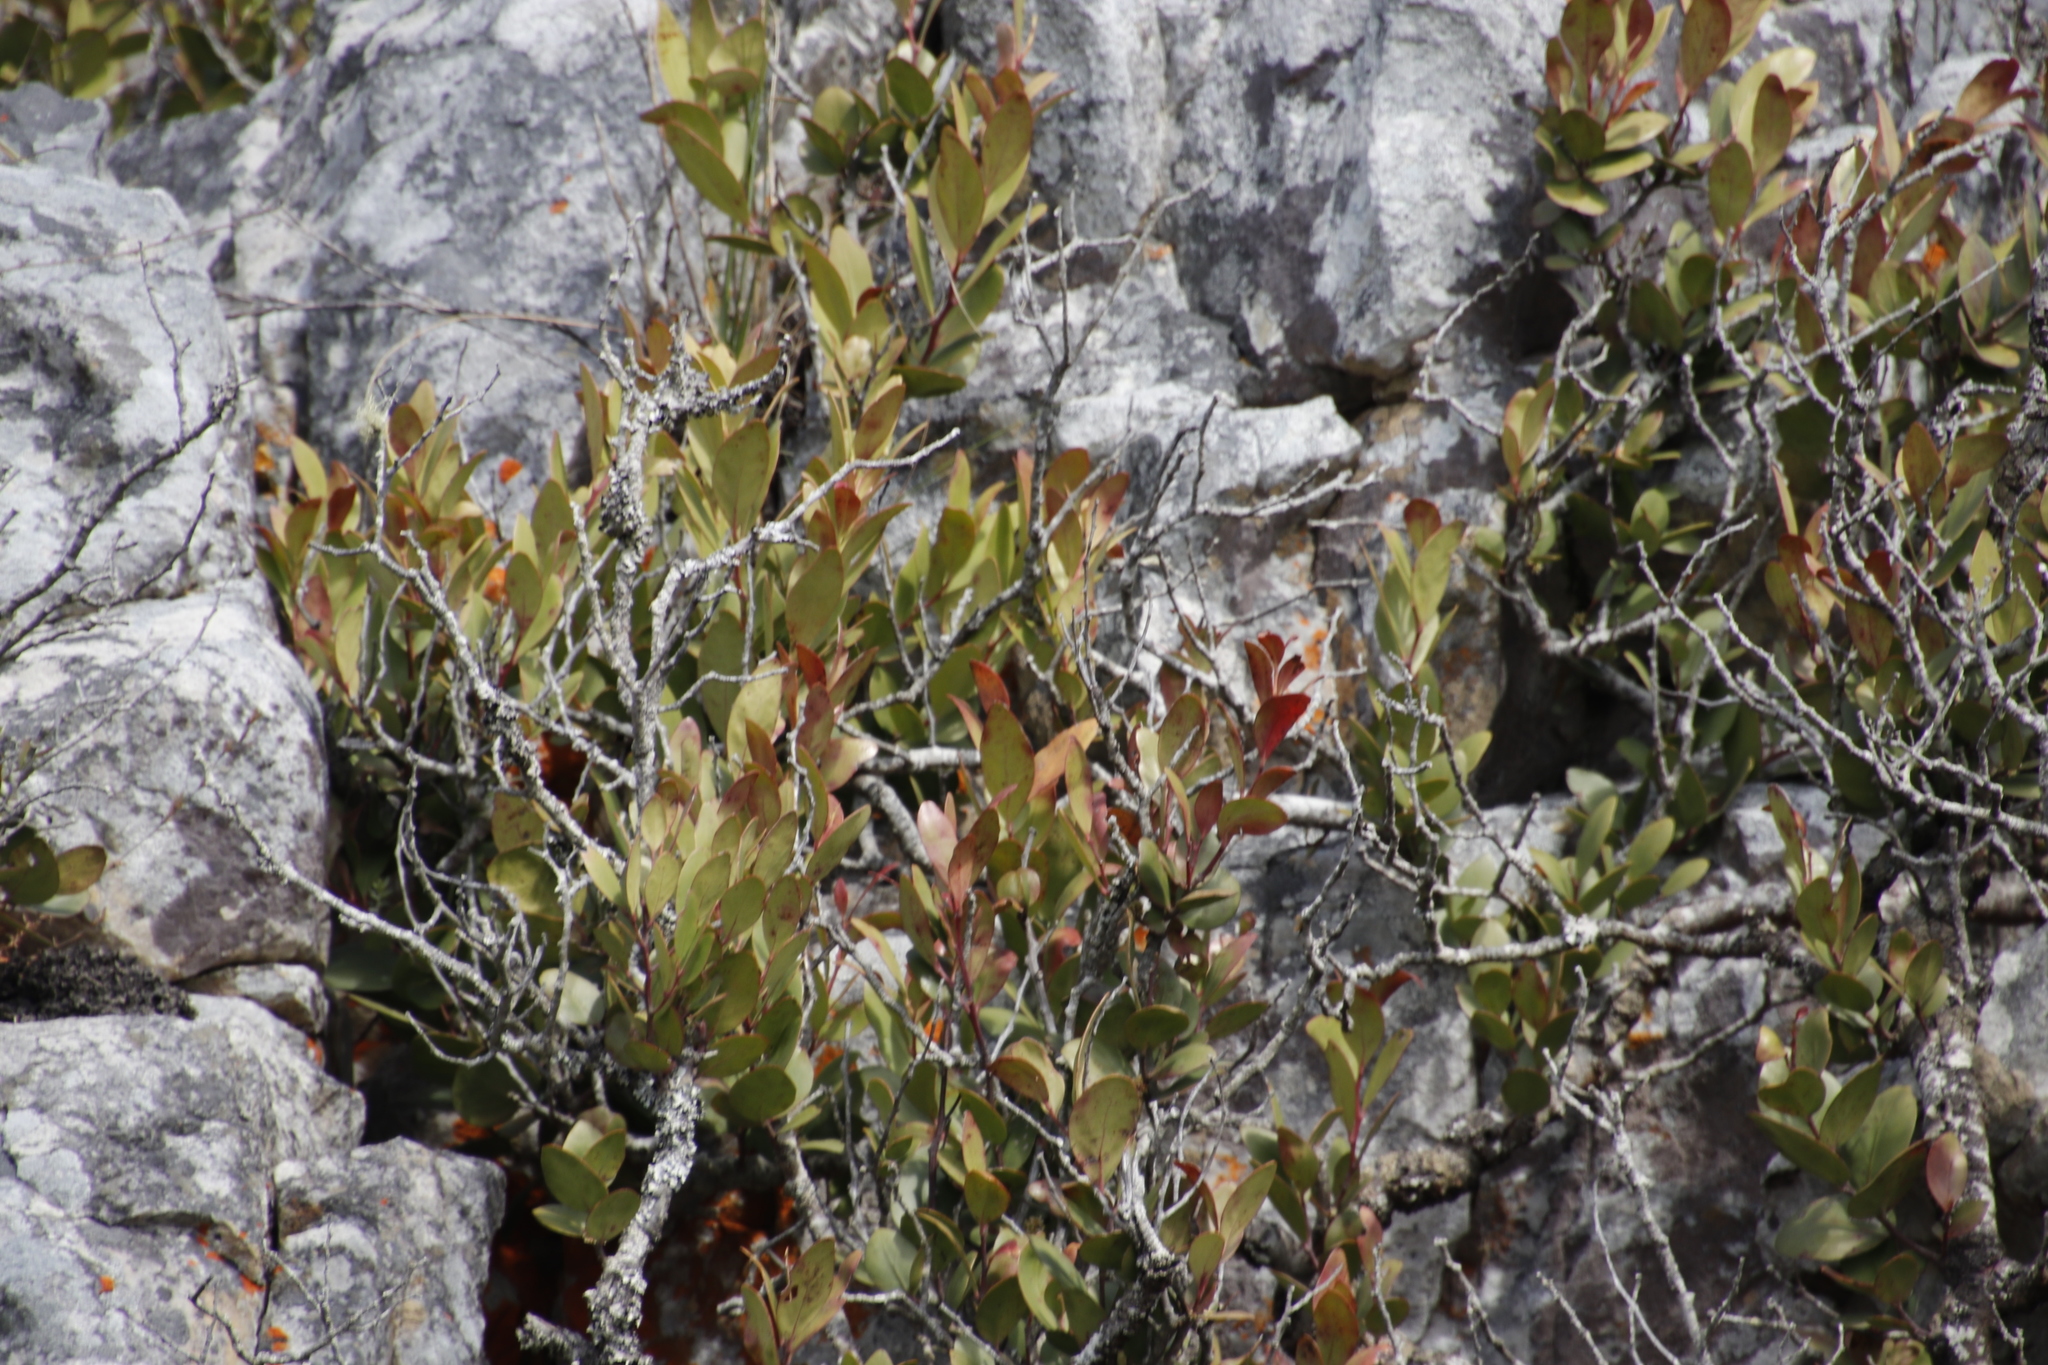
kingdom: Plantae
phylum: Tracheophyta
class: Magnoliopsida
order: Celastrales
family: Celastraceae
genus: Gymnosporia
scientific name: Gymnosporia laurina
